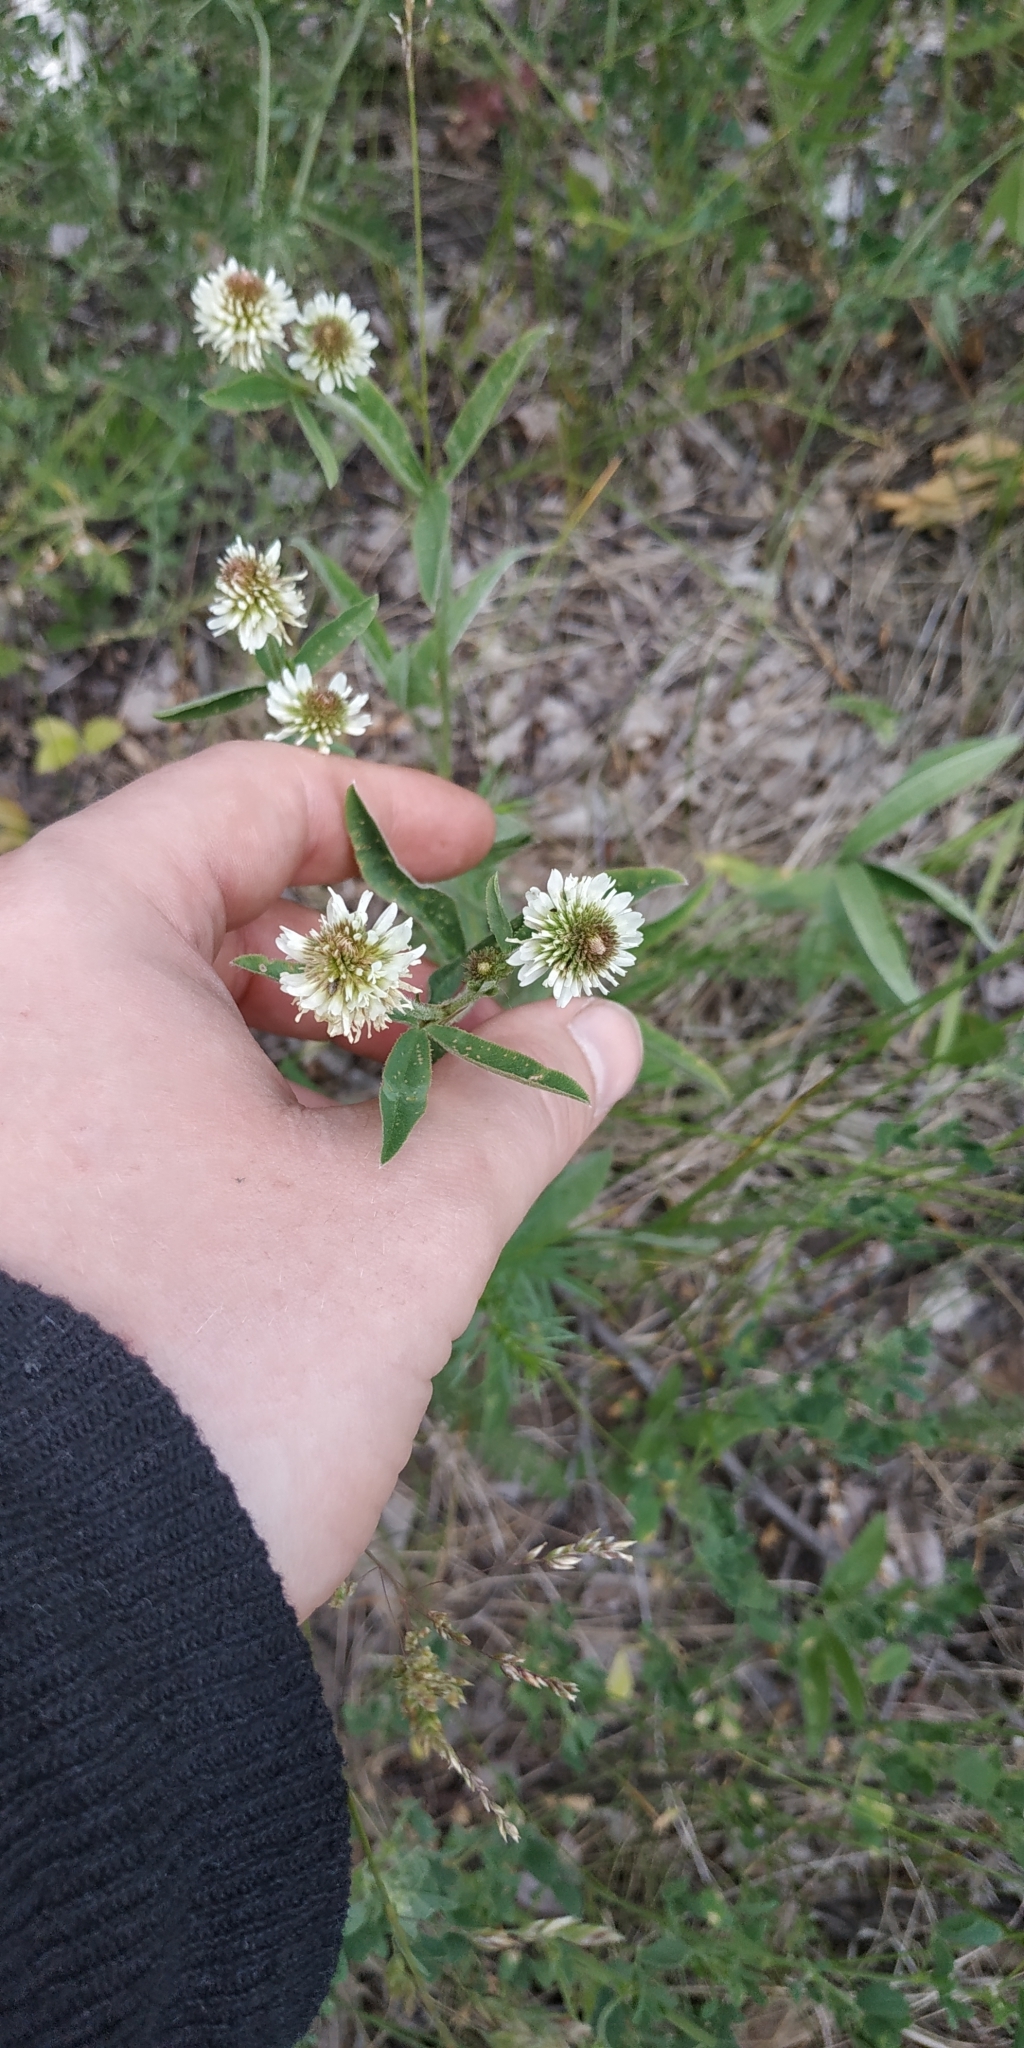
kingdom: Plantae
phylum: Tracheophyta
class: Magnoliopsida
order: Fabales
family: Fabaceae
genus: Trifolium
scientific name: Trifolium montanum
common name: Mountain clover
